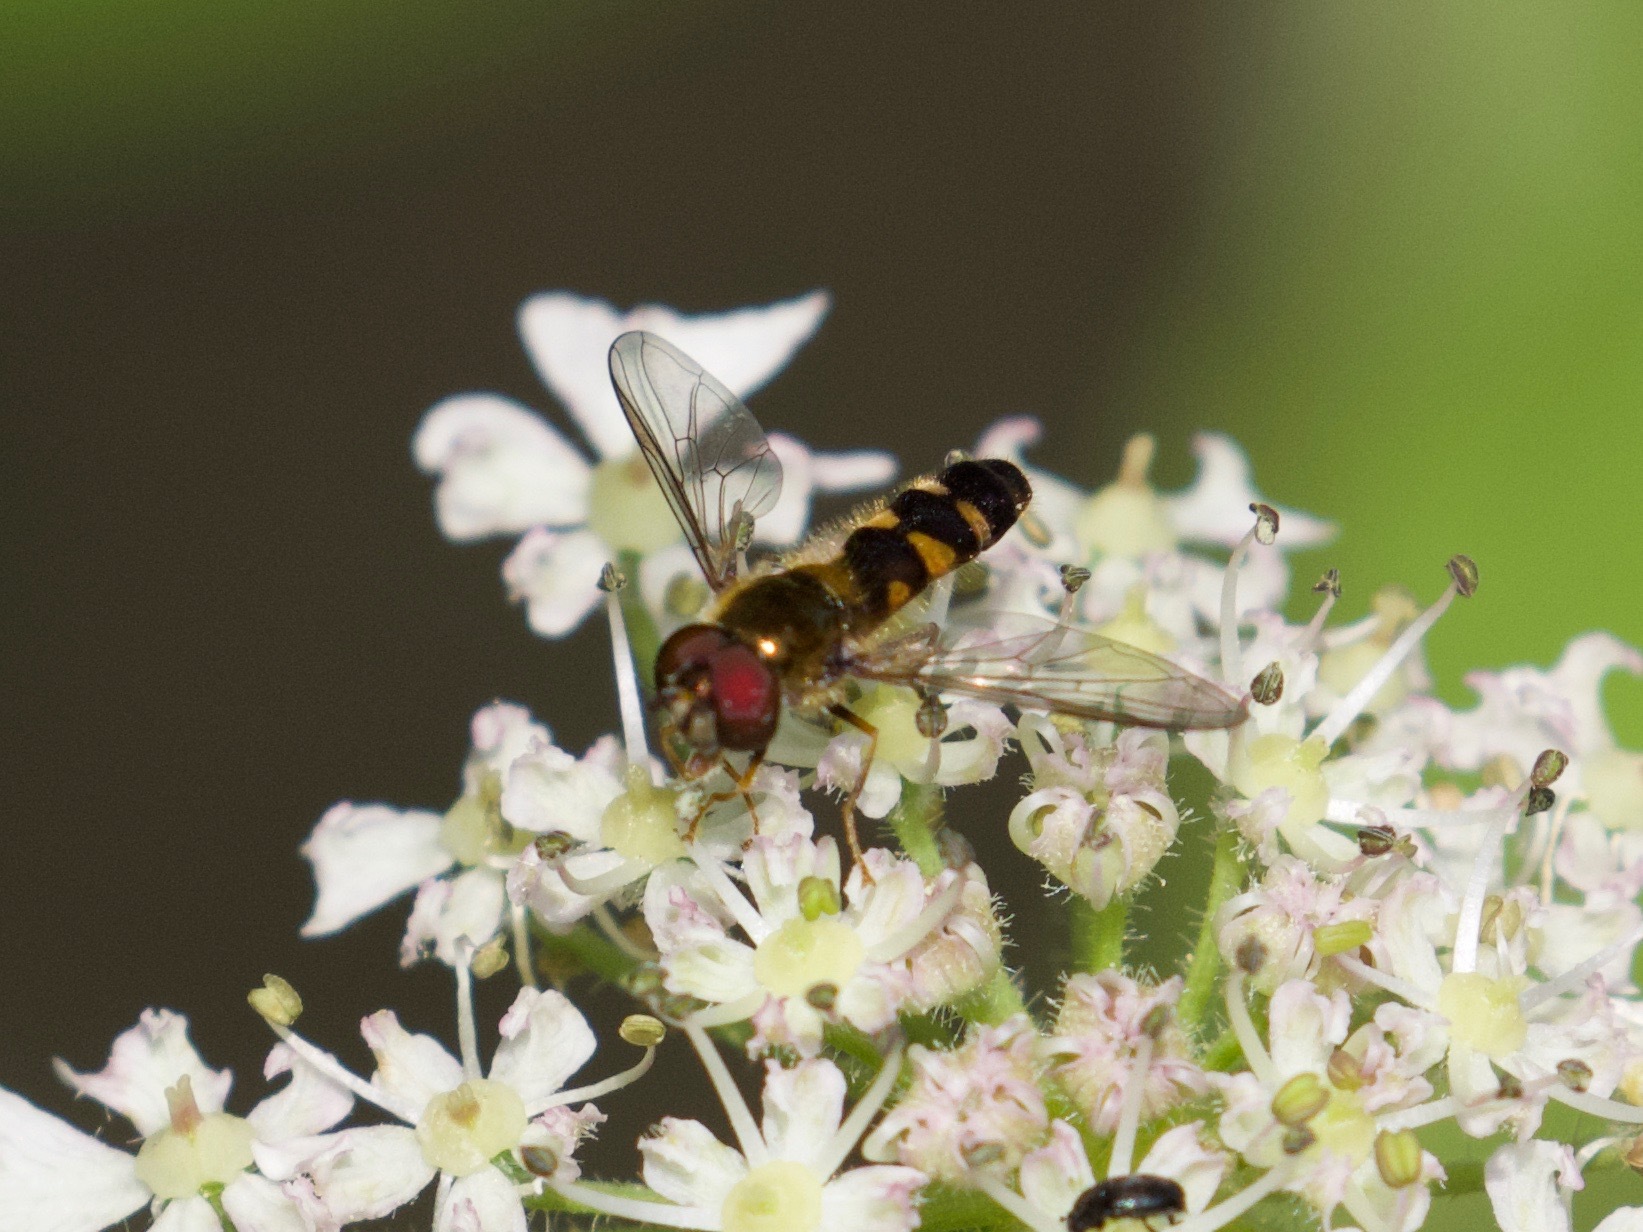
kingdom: Animalia
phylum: Arthropoda
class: Insecta
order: Diptera
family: Syrphidae
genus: Meligramma
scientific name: Meligramma triangulifera
